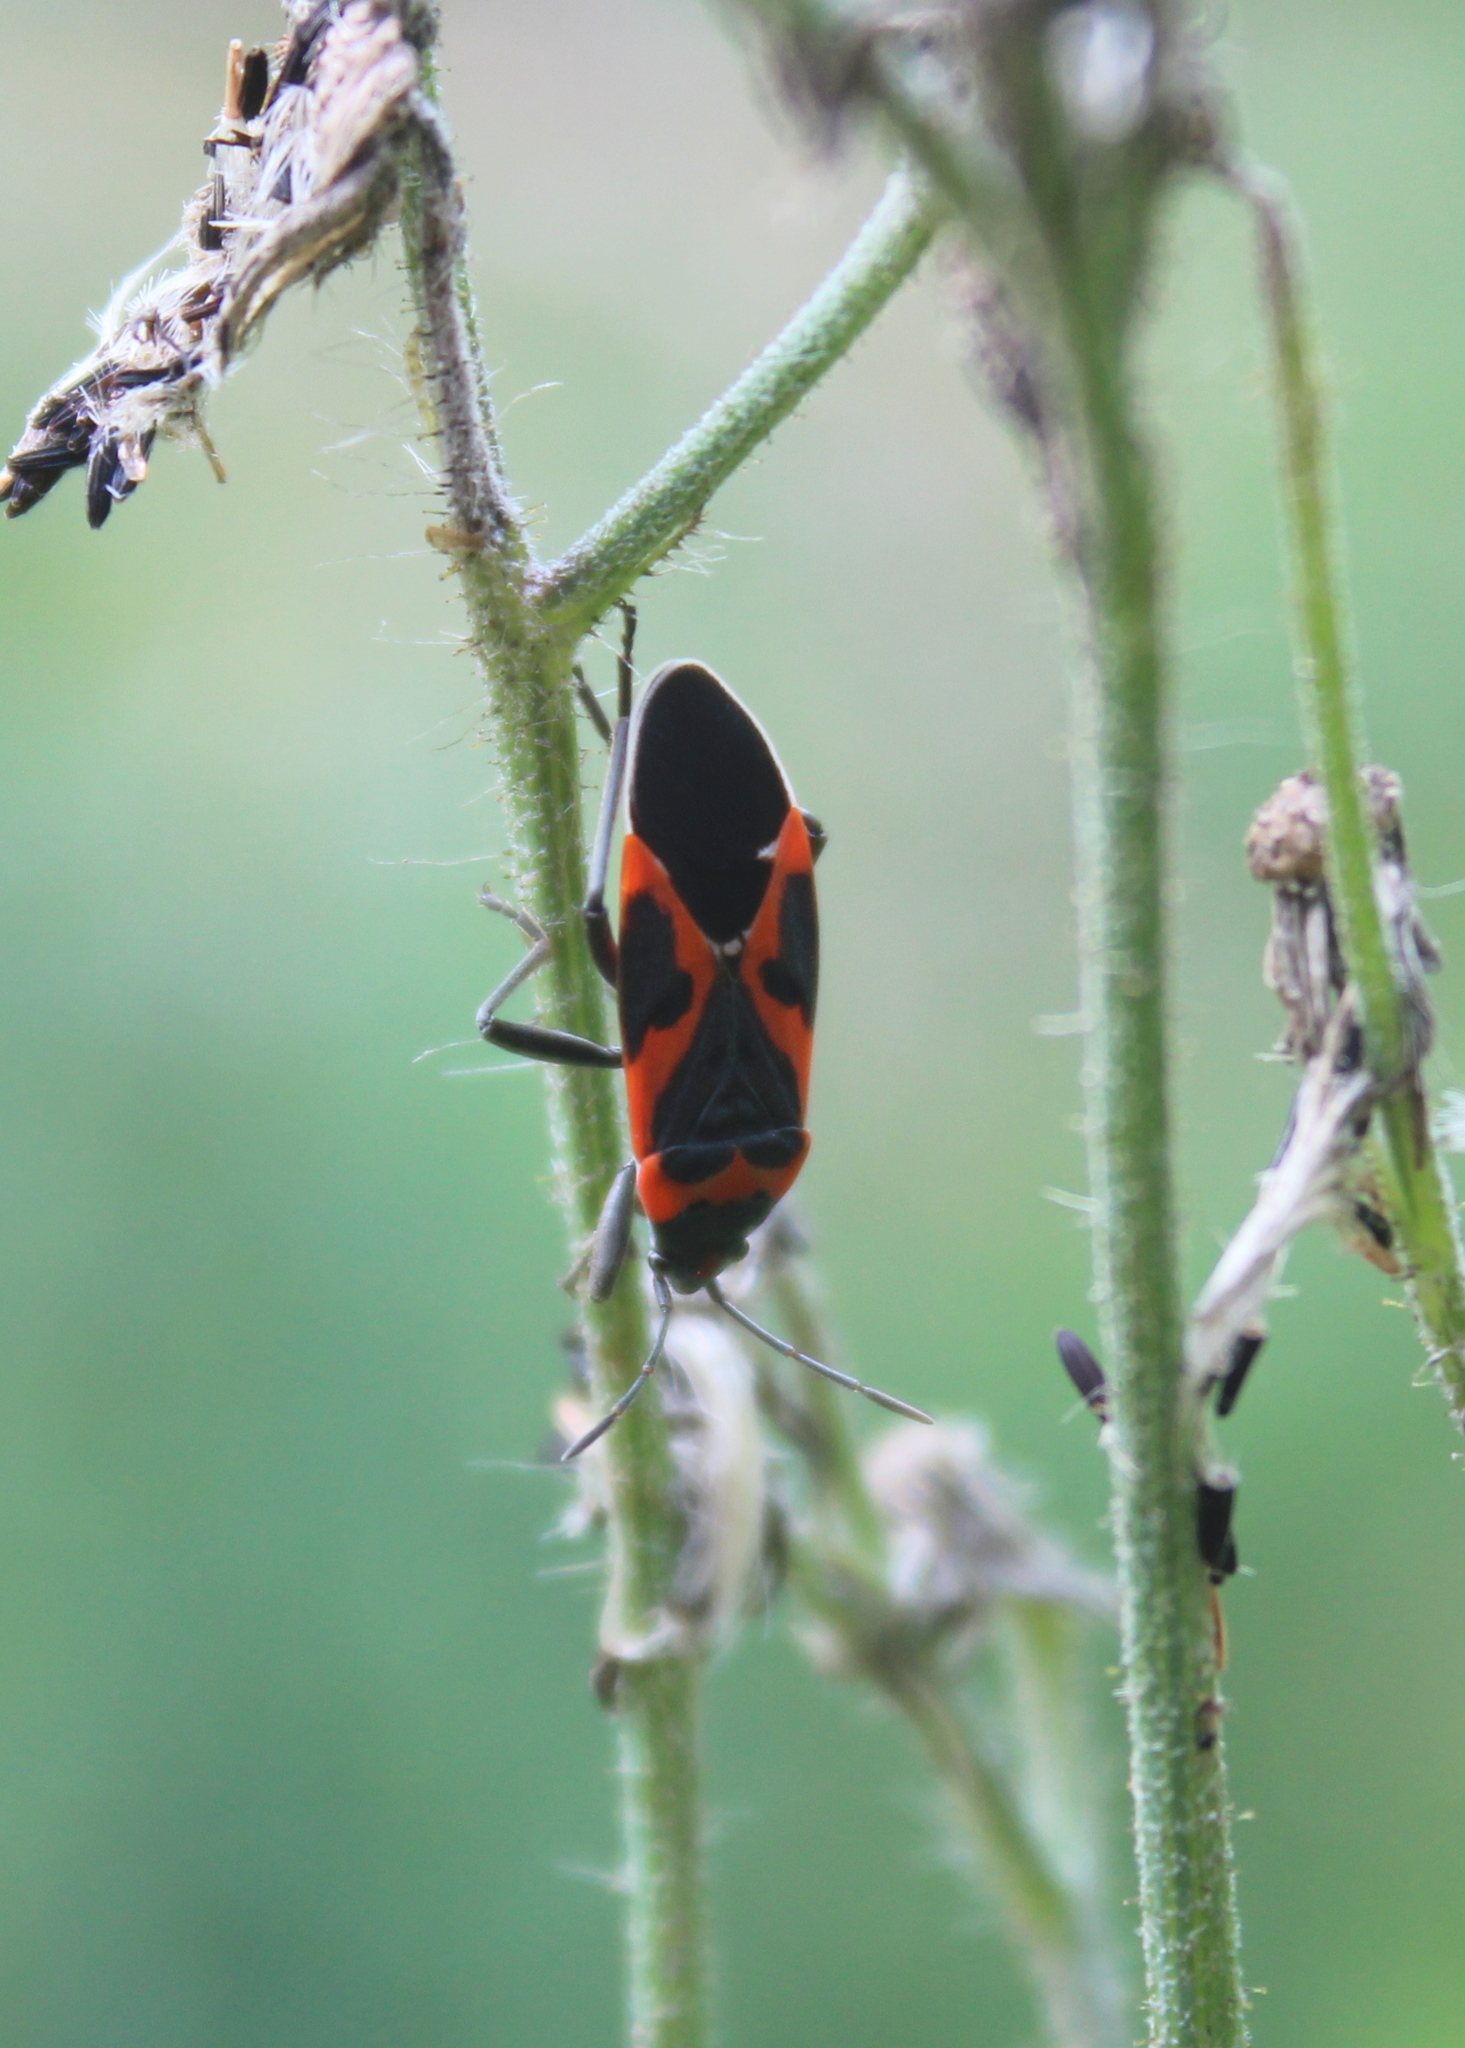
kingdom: Animalia
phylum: Arthropoda
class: Insecta
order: Hemiptera
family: Lygaeidae
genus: Lygaeus
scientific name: Lygaeus kalmii
